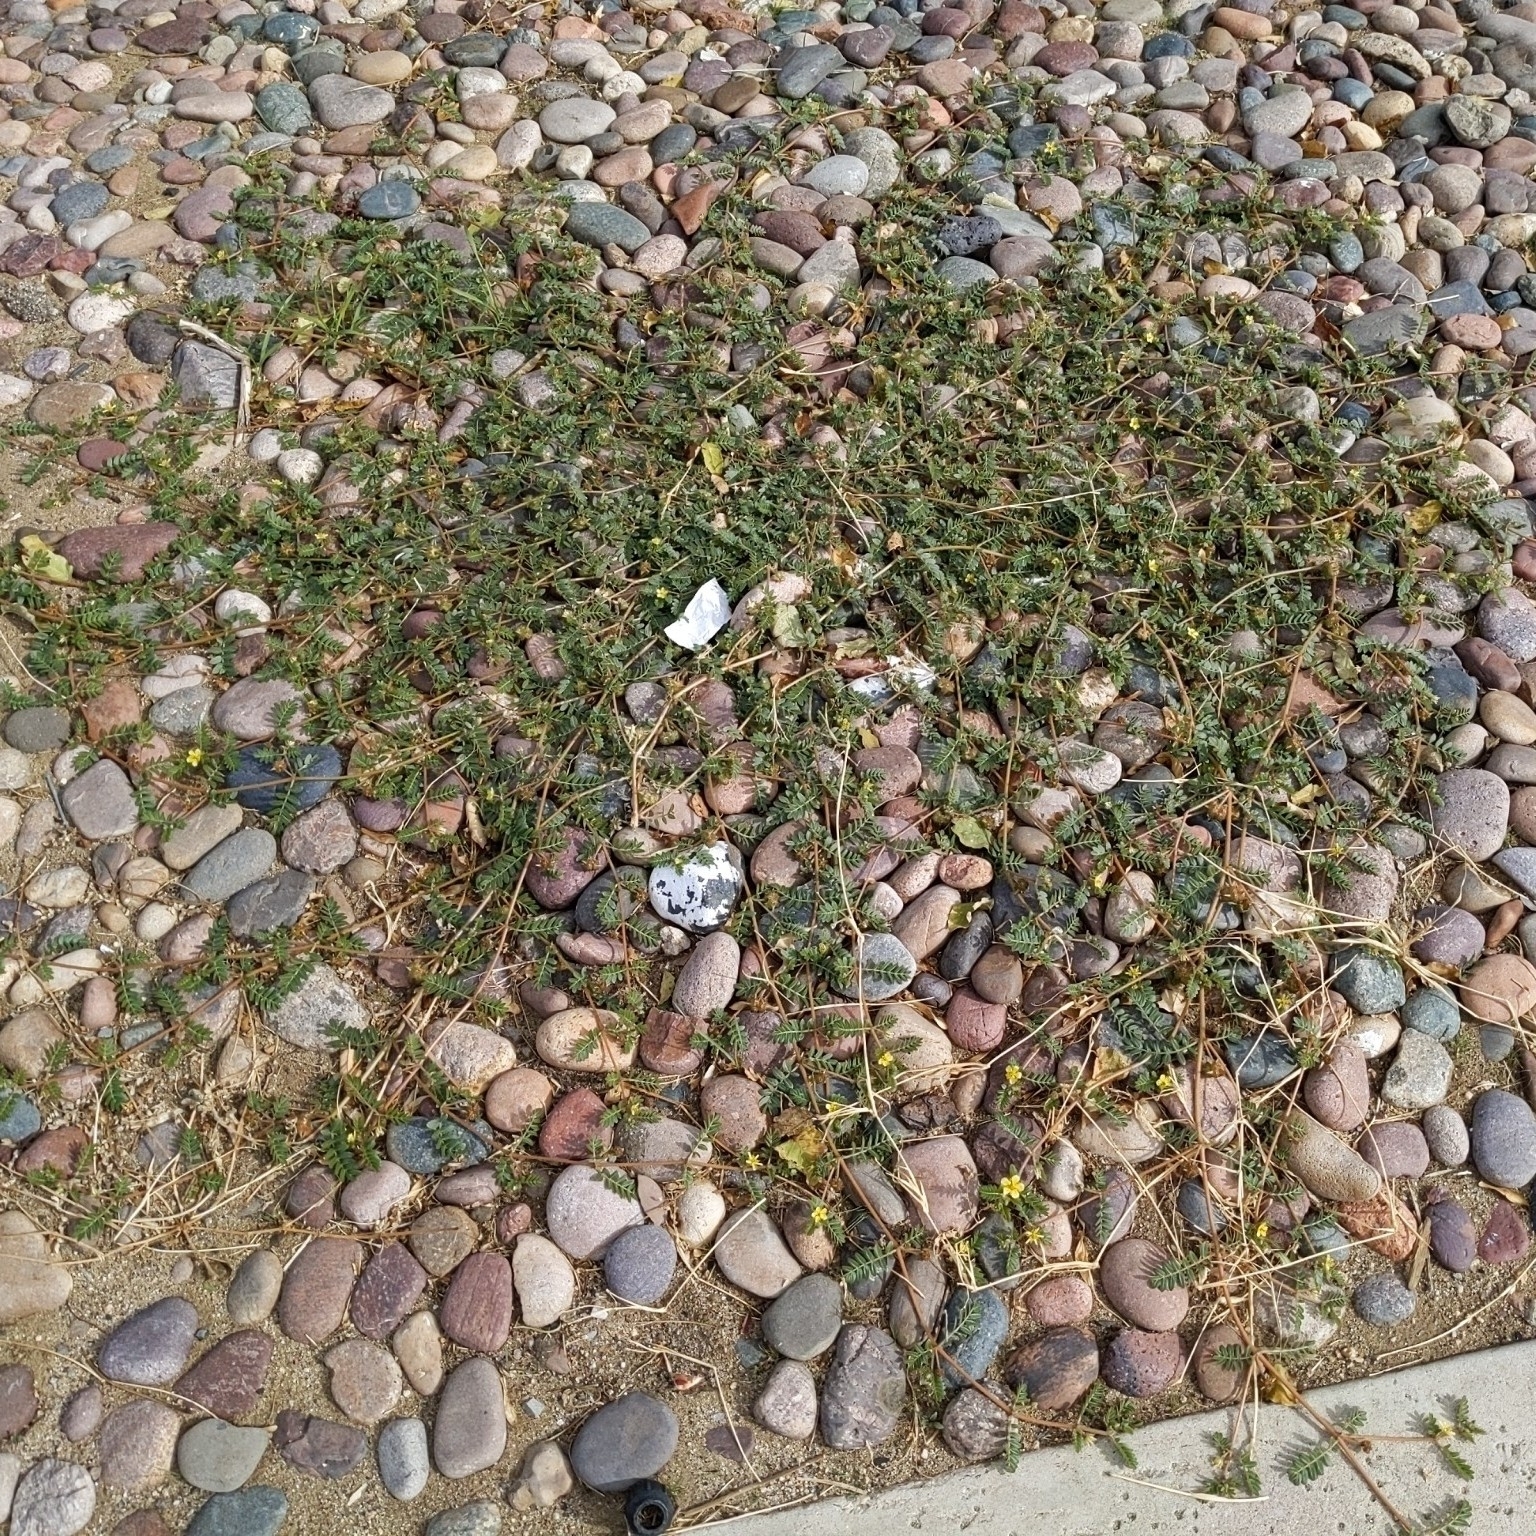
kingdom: Plantae
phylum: Tracheophyta
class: Magnoliopsida
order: Zygophyllales
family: Zygophyllaceae
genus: Tribulus
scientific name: Tribulus terrestris
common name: Puncturevine
